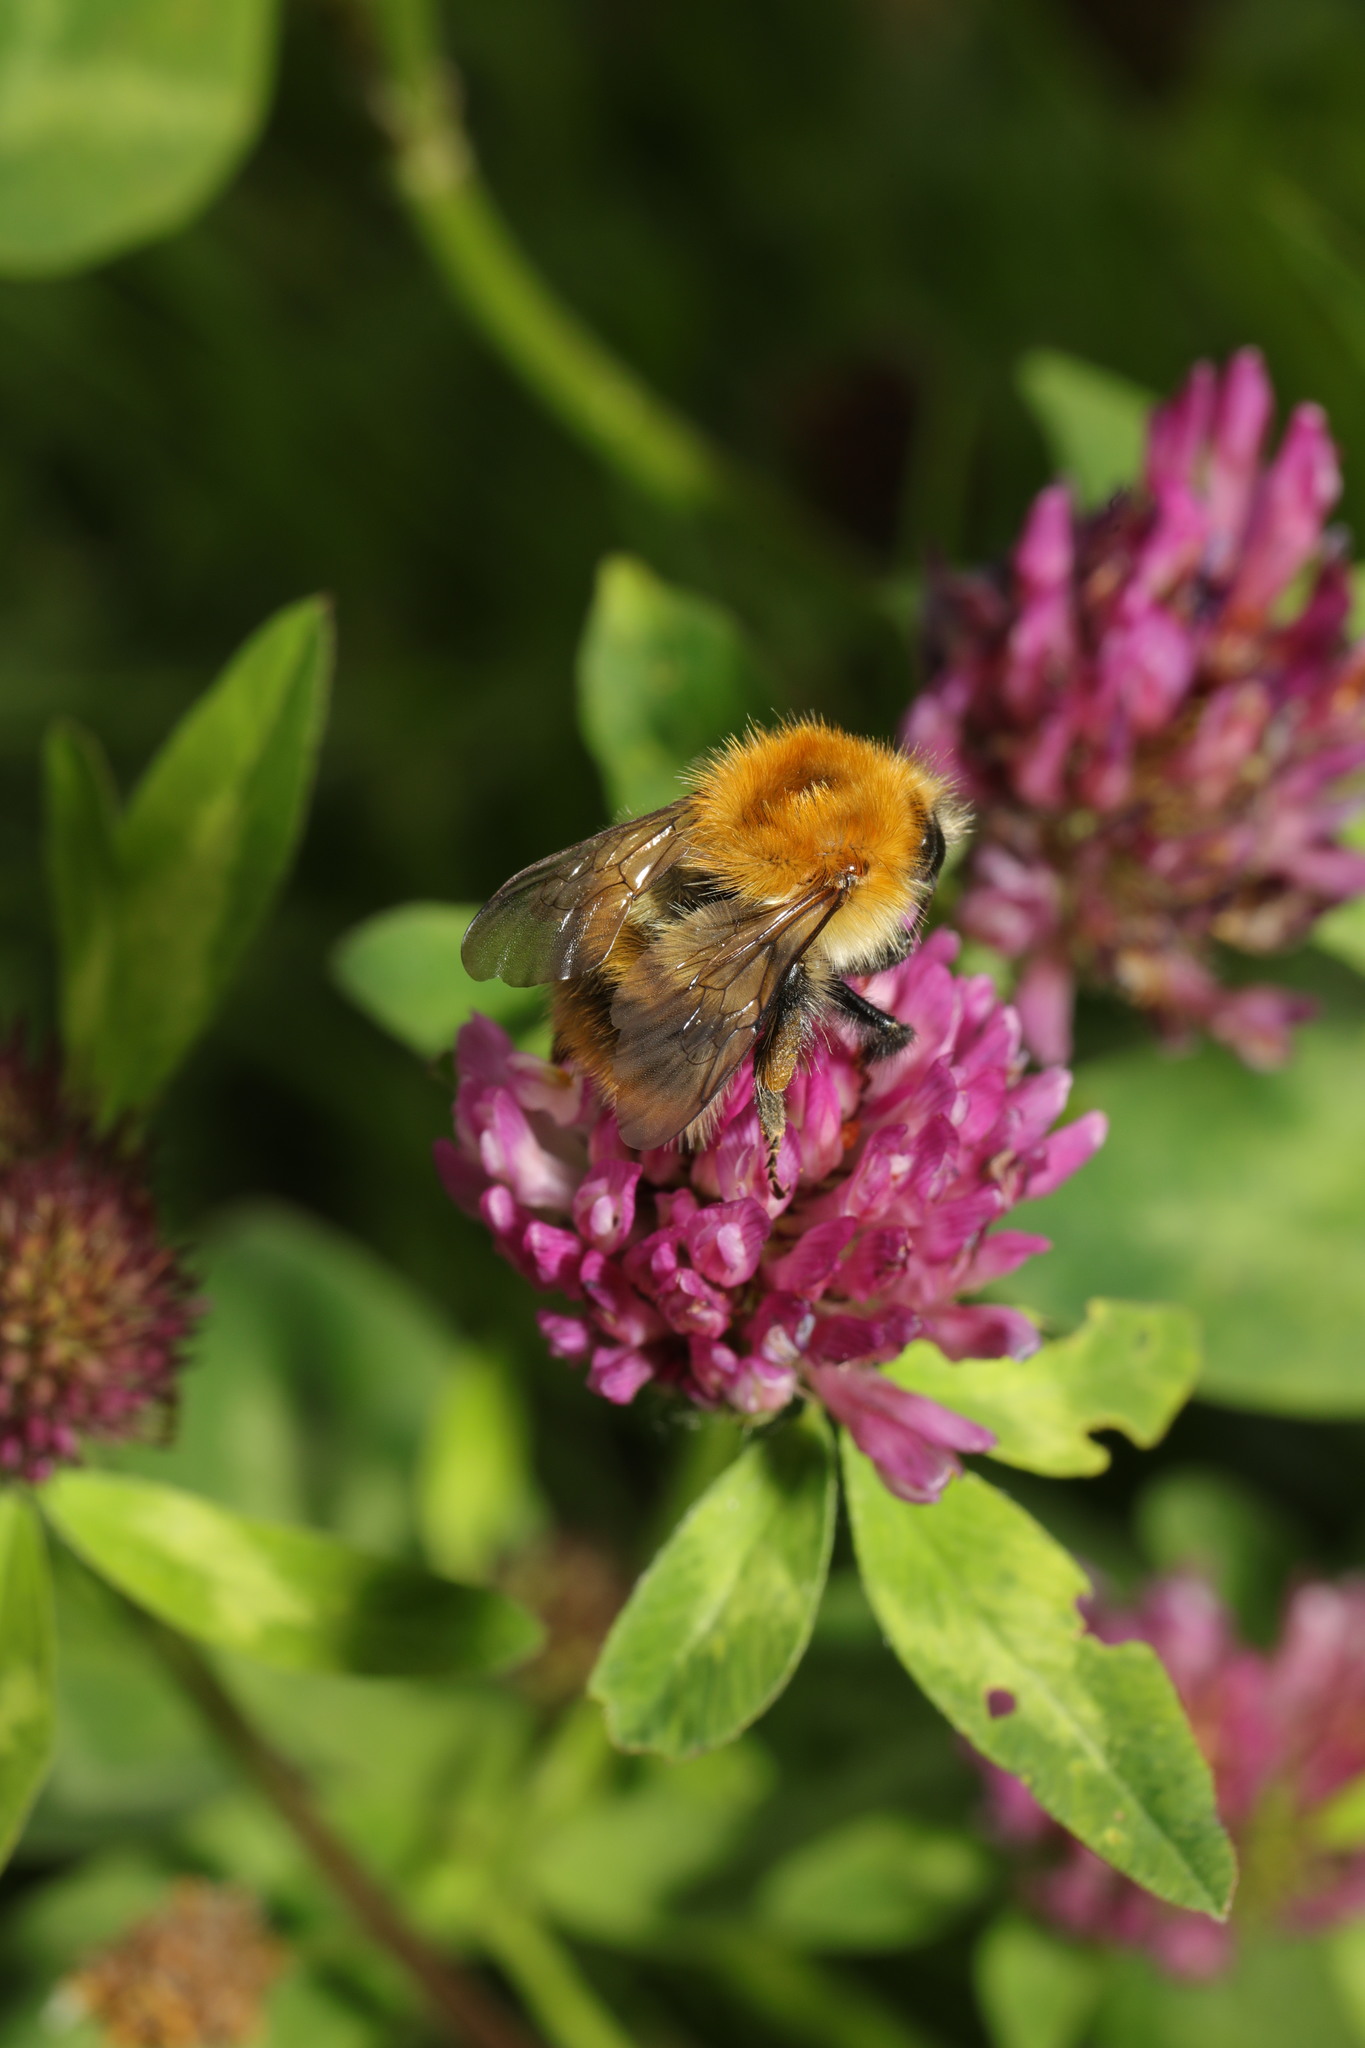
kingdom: Animalia
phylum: Arthropoda
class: Insecta
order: Hymenoptera
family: Apidae
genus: Bombus
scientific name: Bombus pascuorum
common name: Common carder bee
